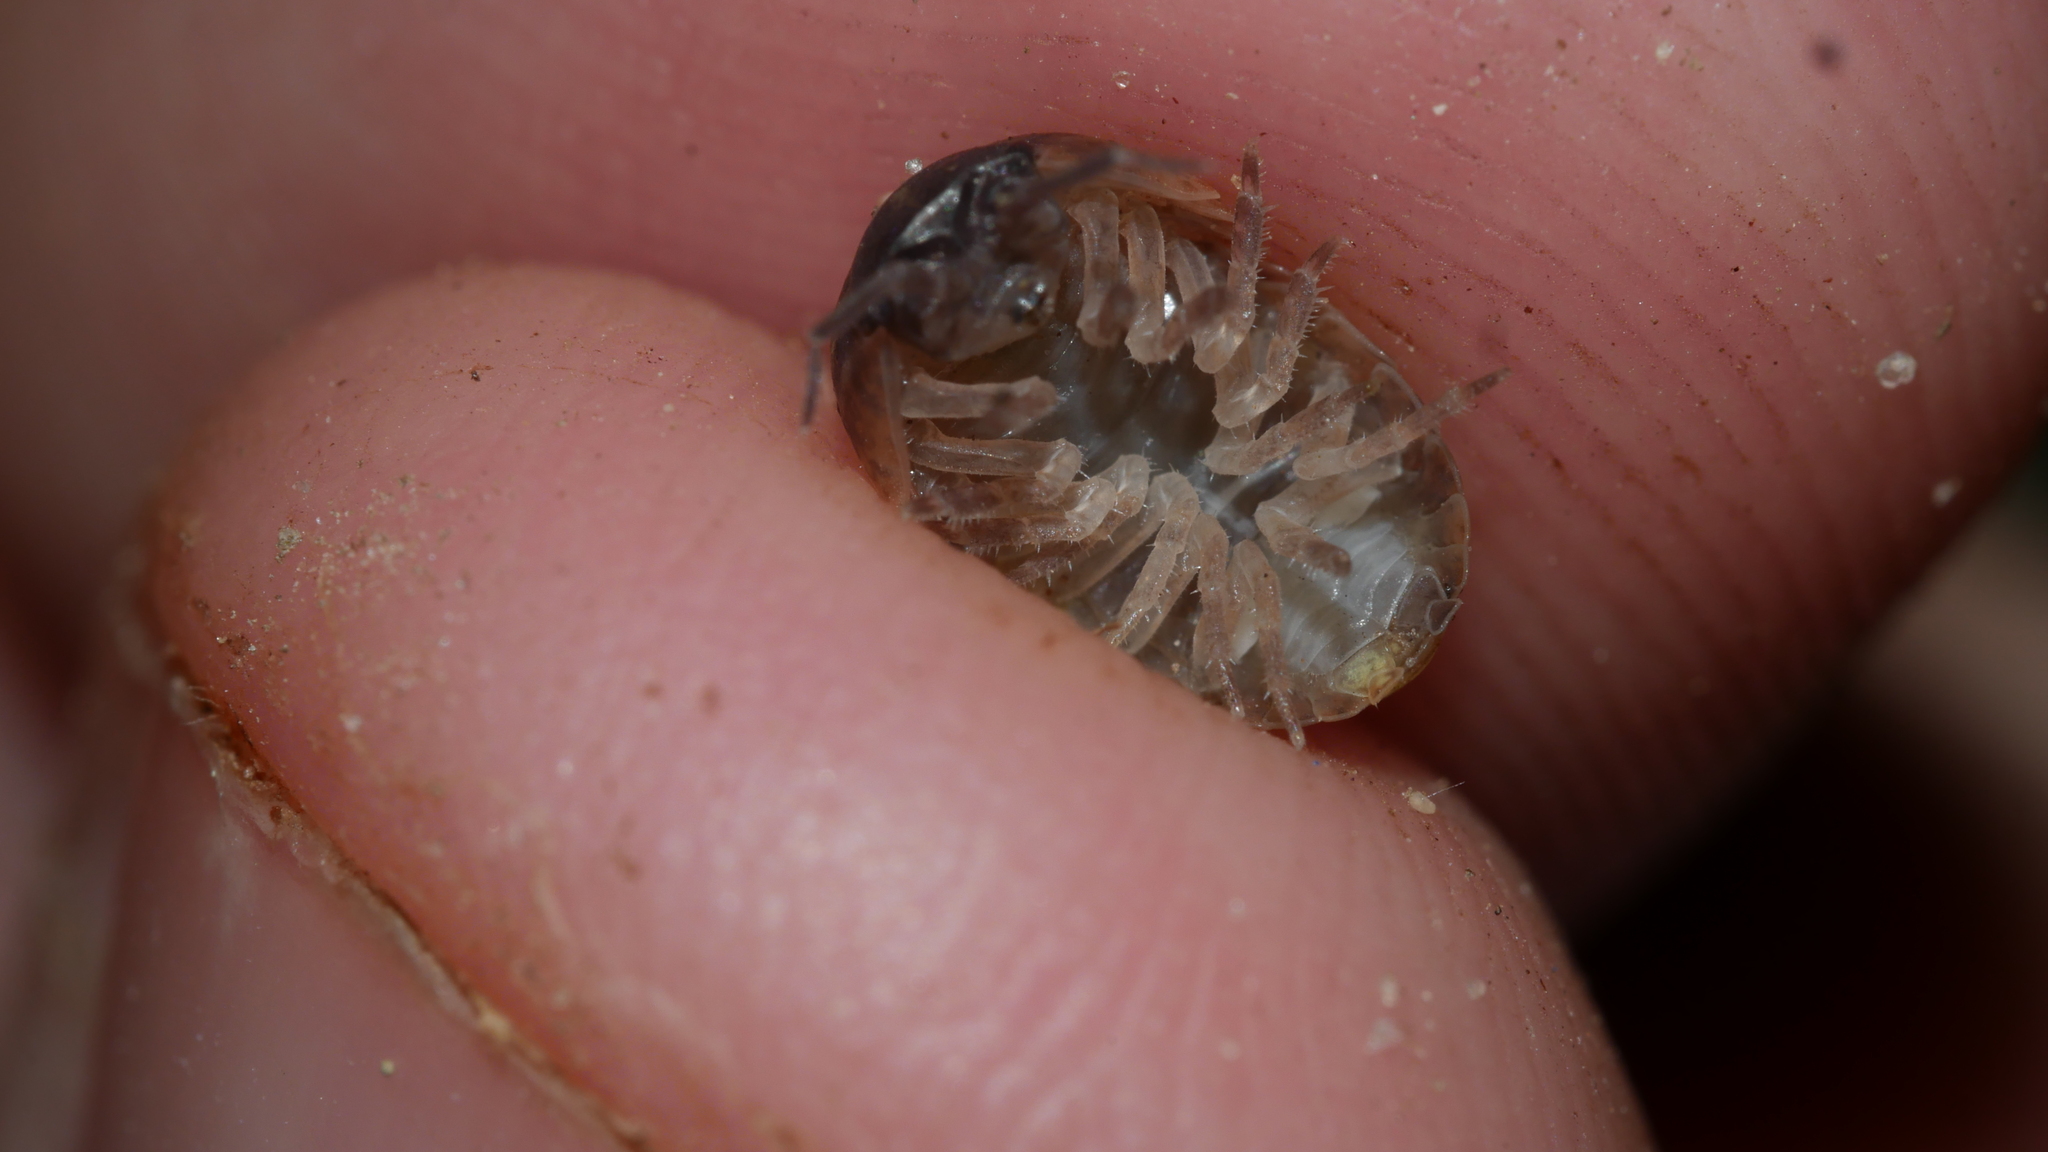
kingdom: Animalia
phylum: Arthropoda
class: Malacostraca
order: Isopoda
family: Armadillidiidae
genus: Armadillidium
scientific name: Armadillidium vulgare
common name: Common pill woodlouse
